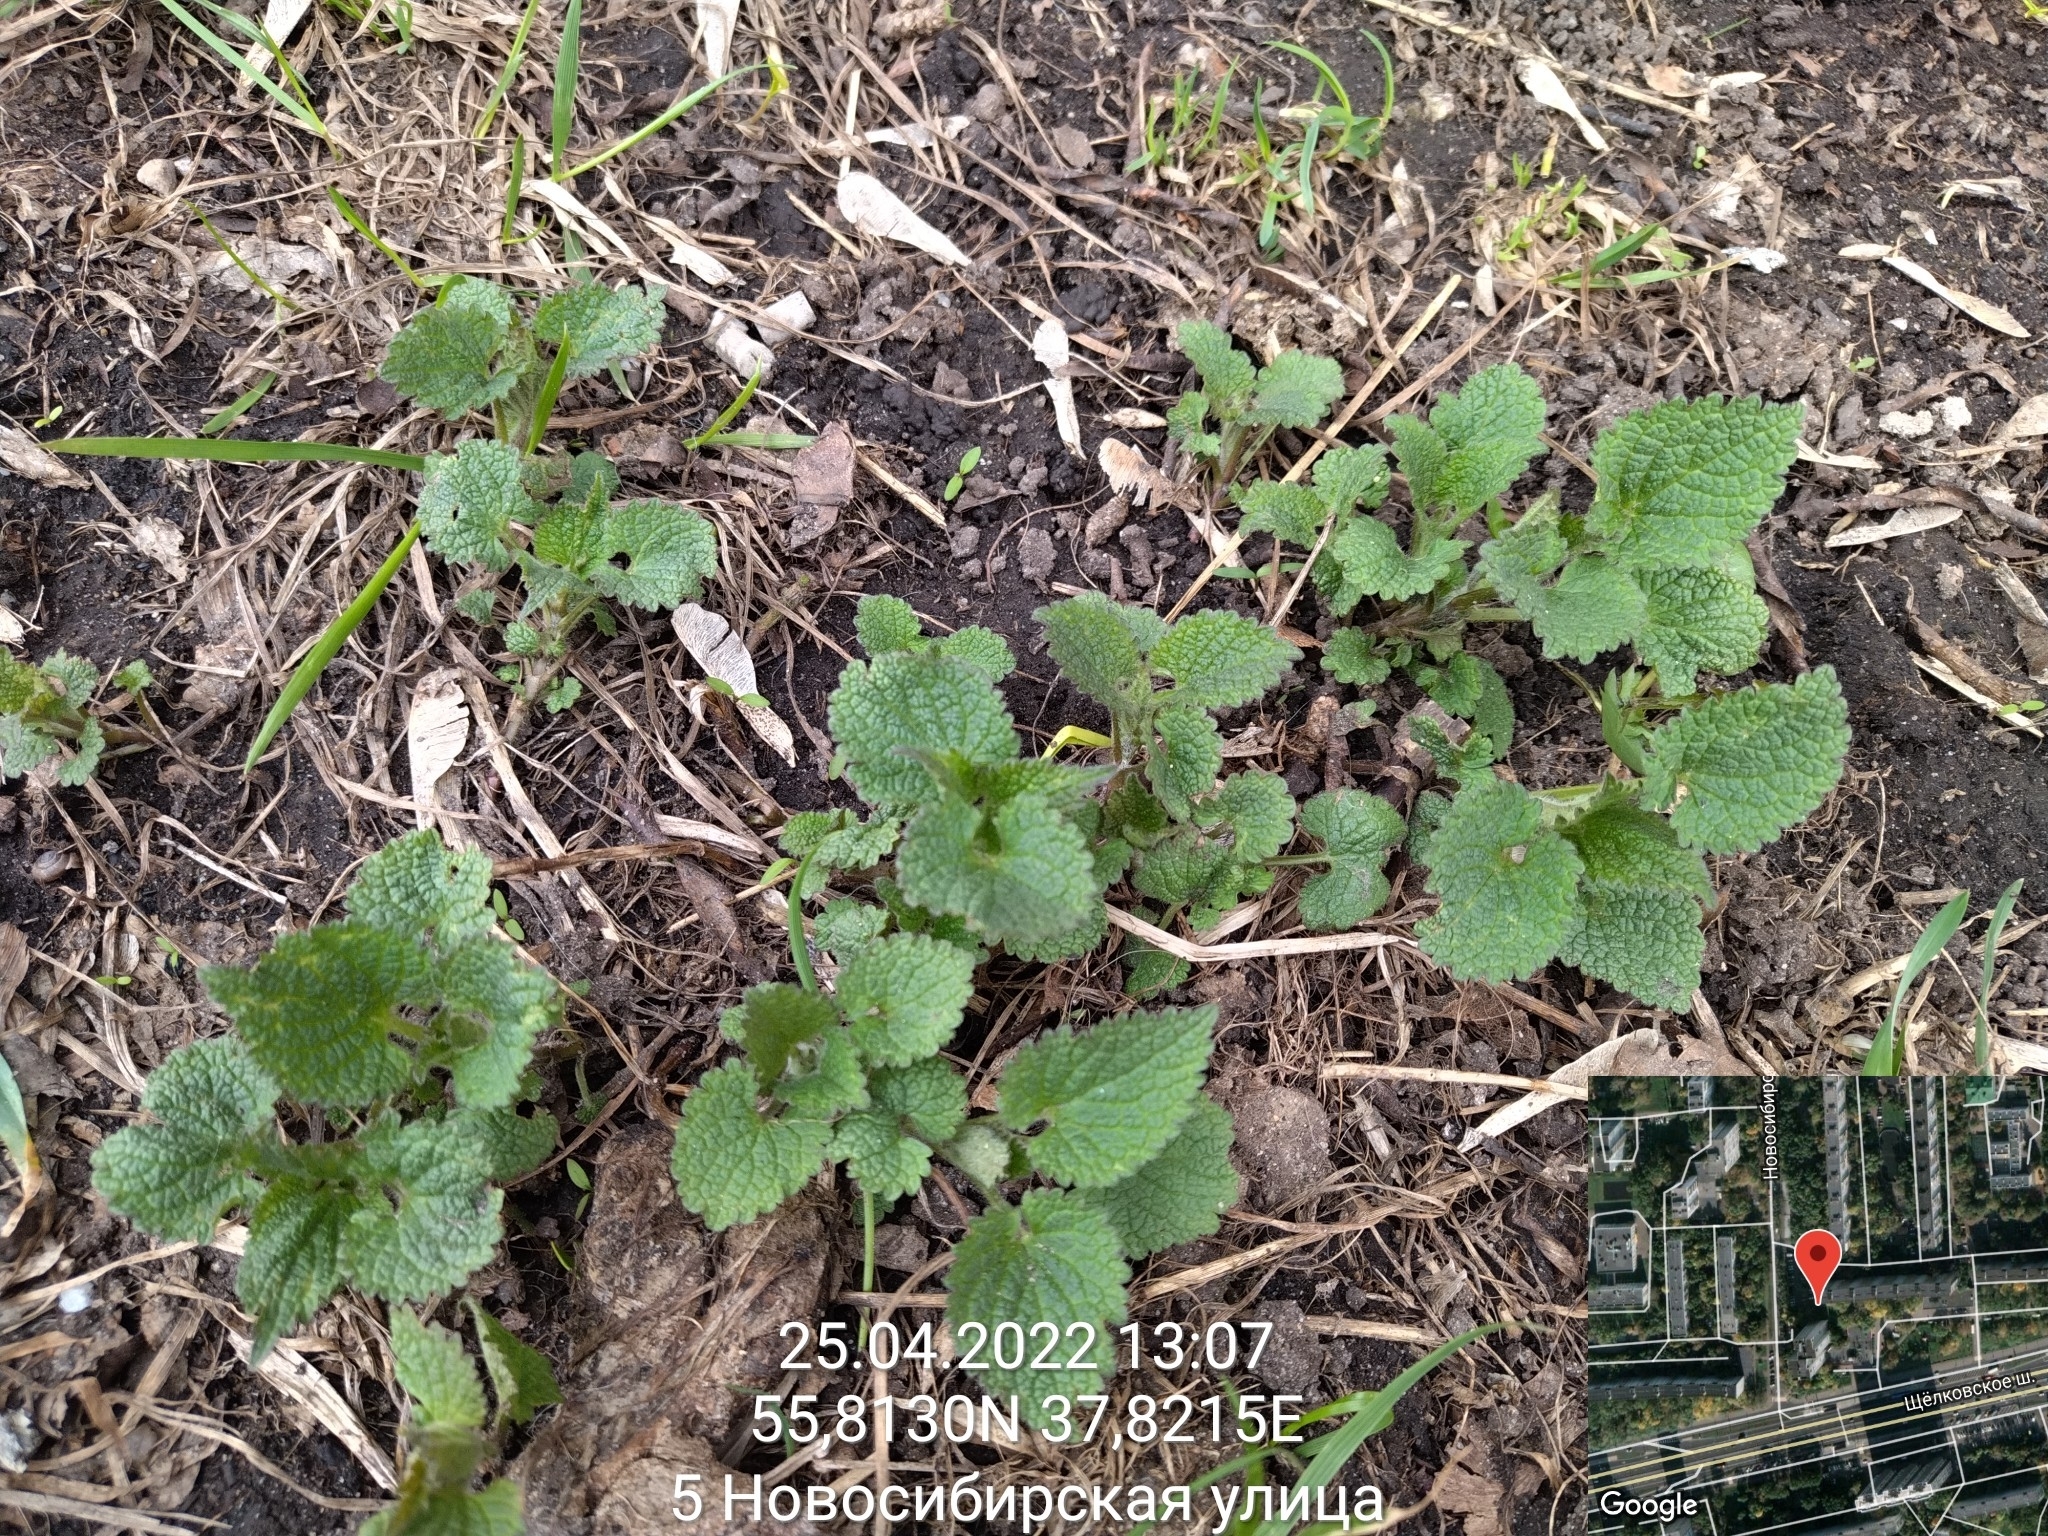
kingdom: Plantae
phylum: Tracheophyta
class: Magnoliopsida
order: Lamiales
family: Lamiaceae
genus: Lamium
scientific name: Lamium album
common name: White dead-nettle
